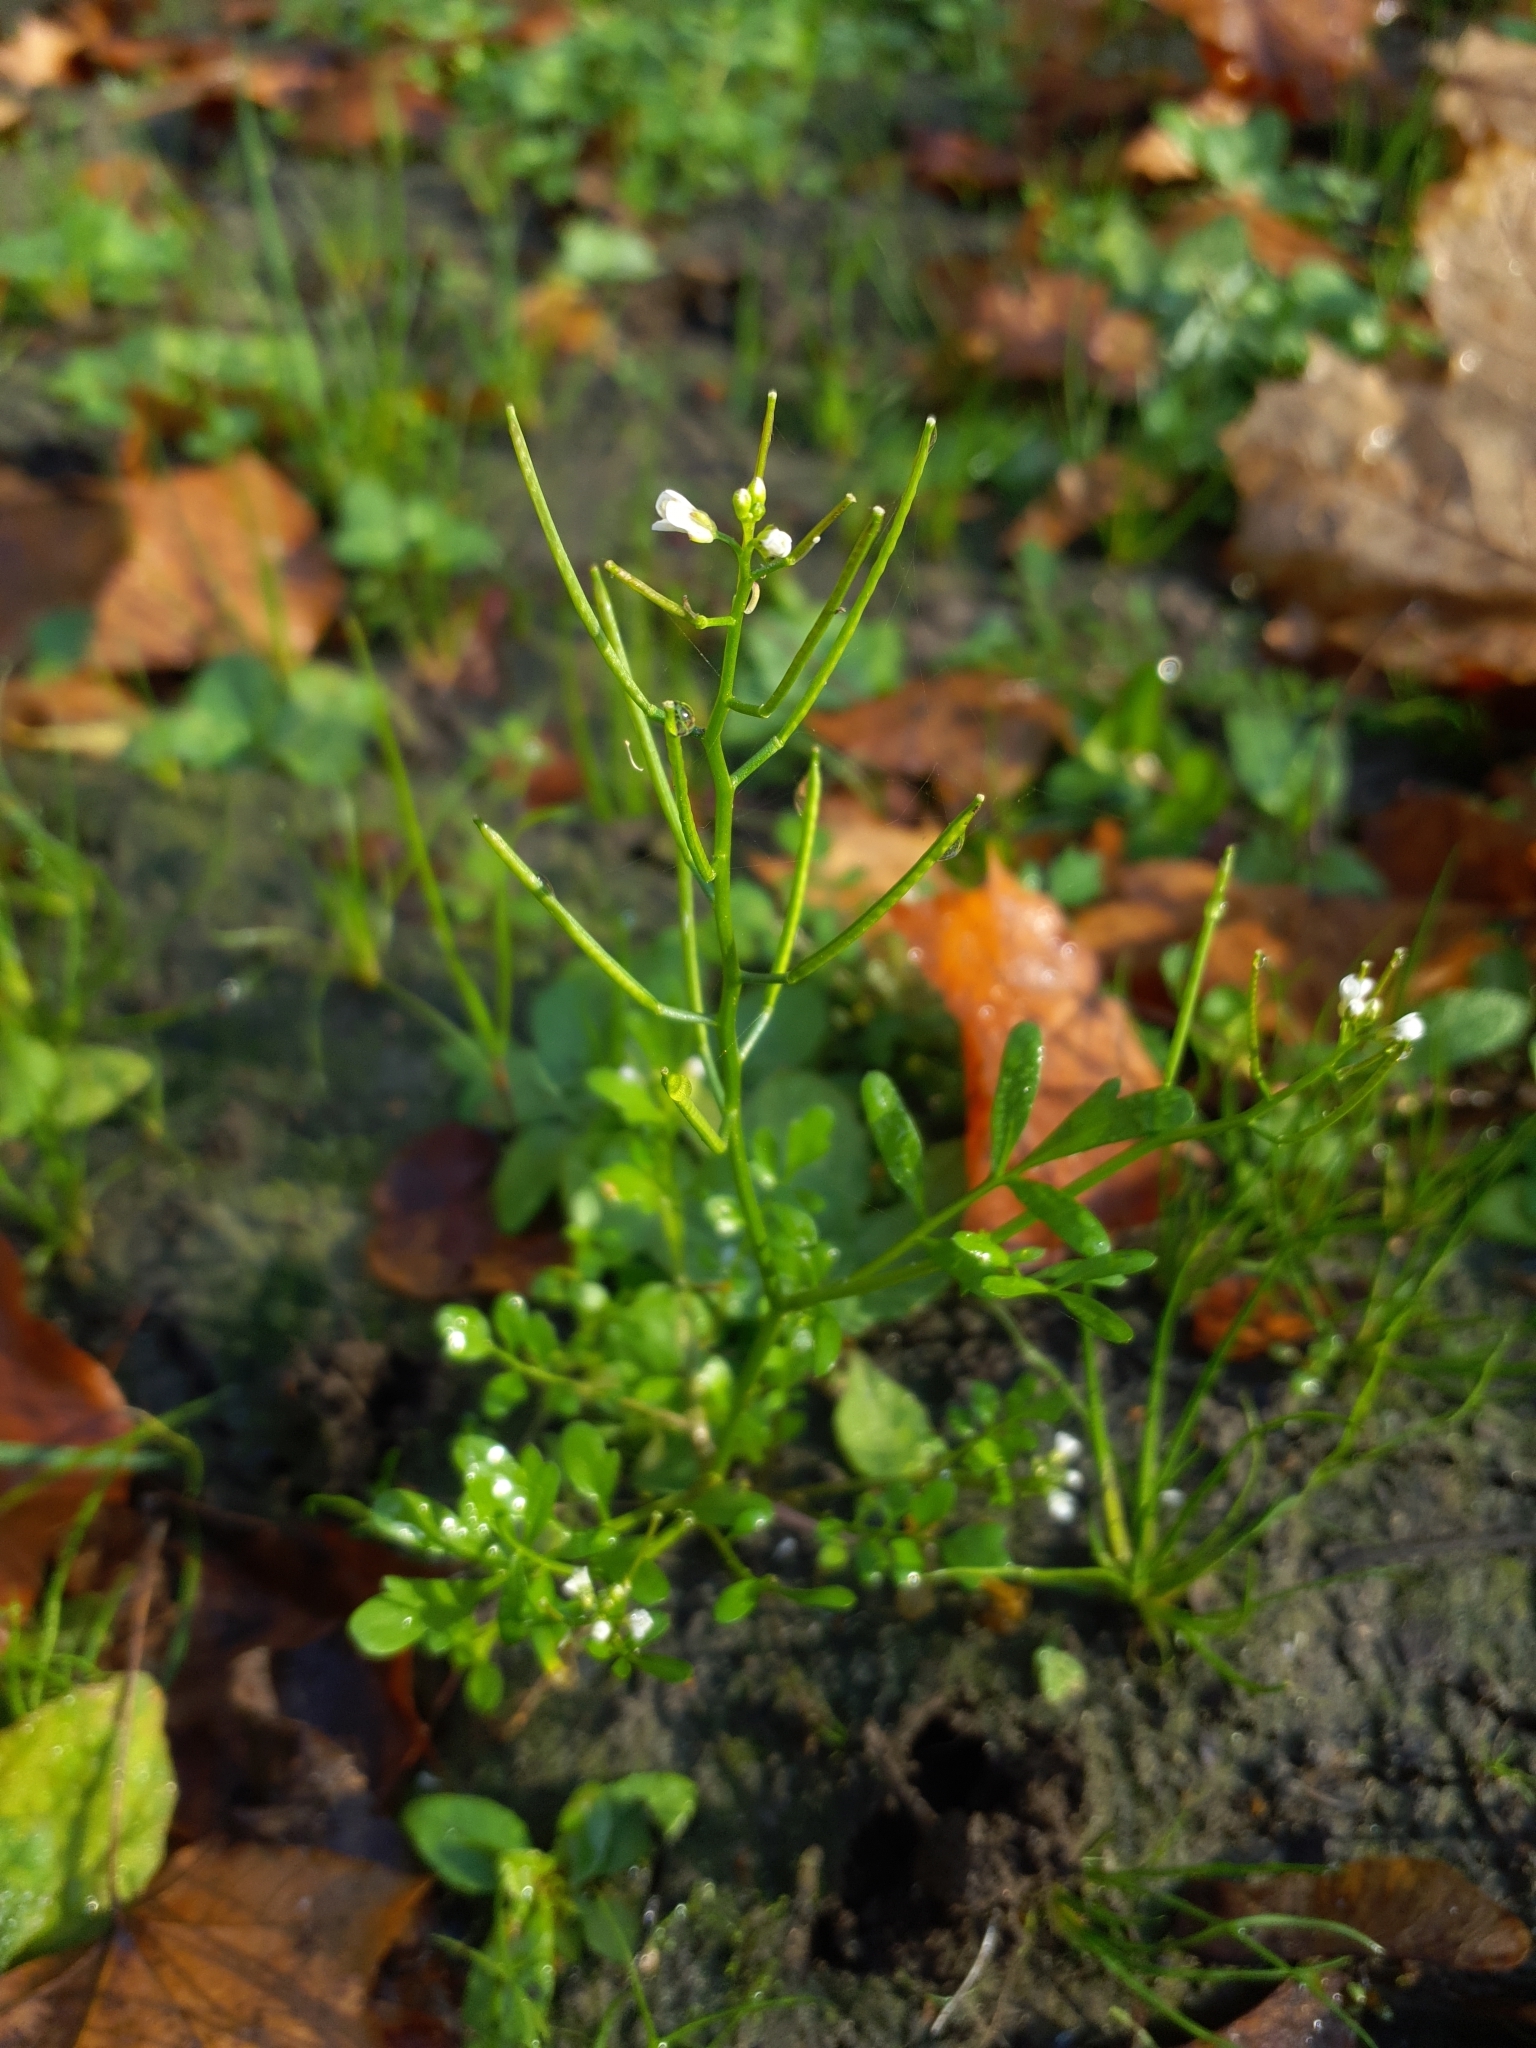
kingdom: Plantae
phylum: Tracheophyta
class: Magnoliopsida
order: Brassicales
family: Brassicaceae
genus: Cardamine
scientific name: Cardamine occulta
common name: Asian wavy bittercress
